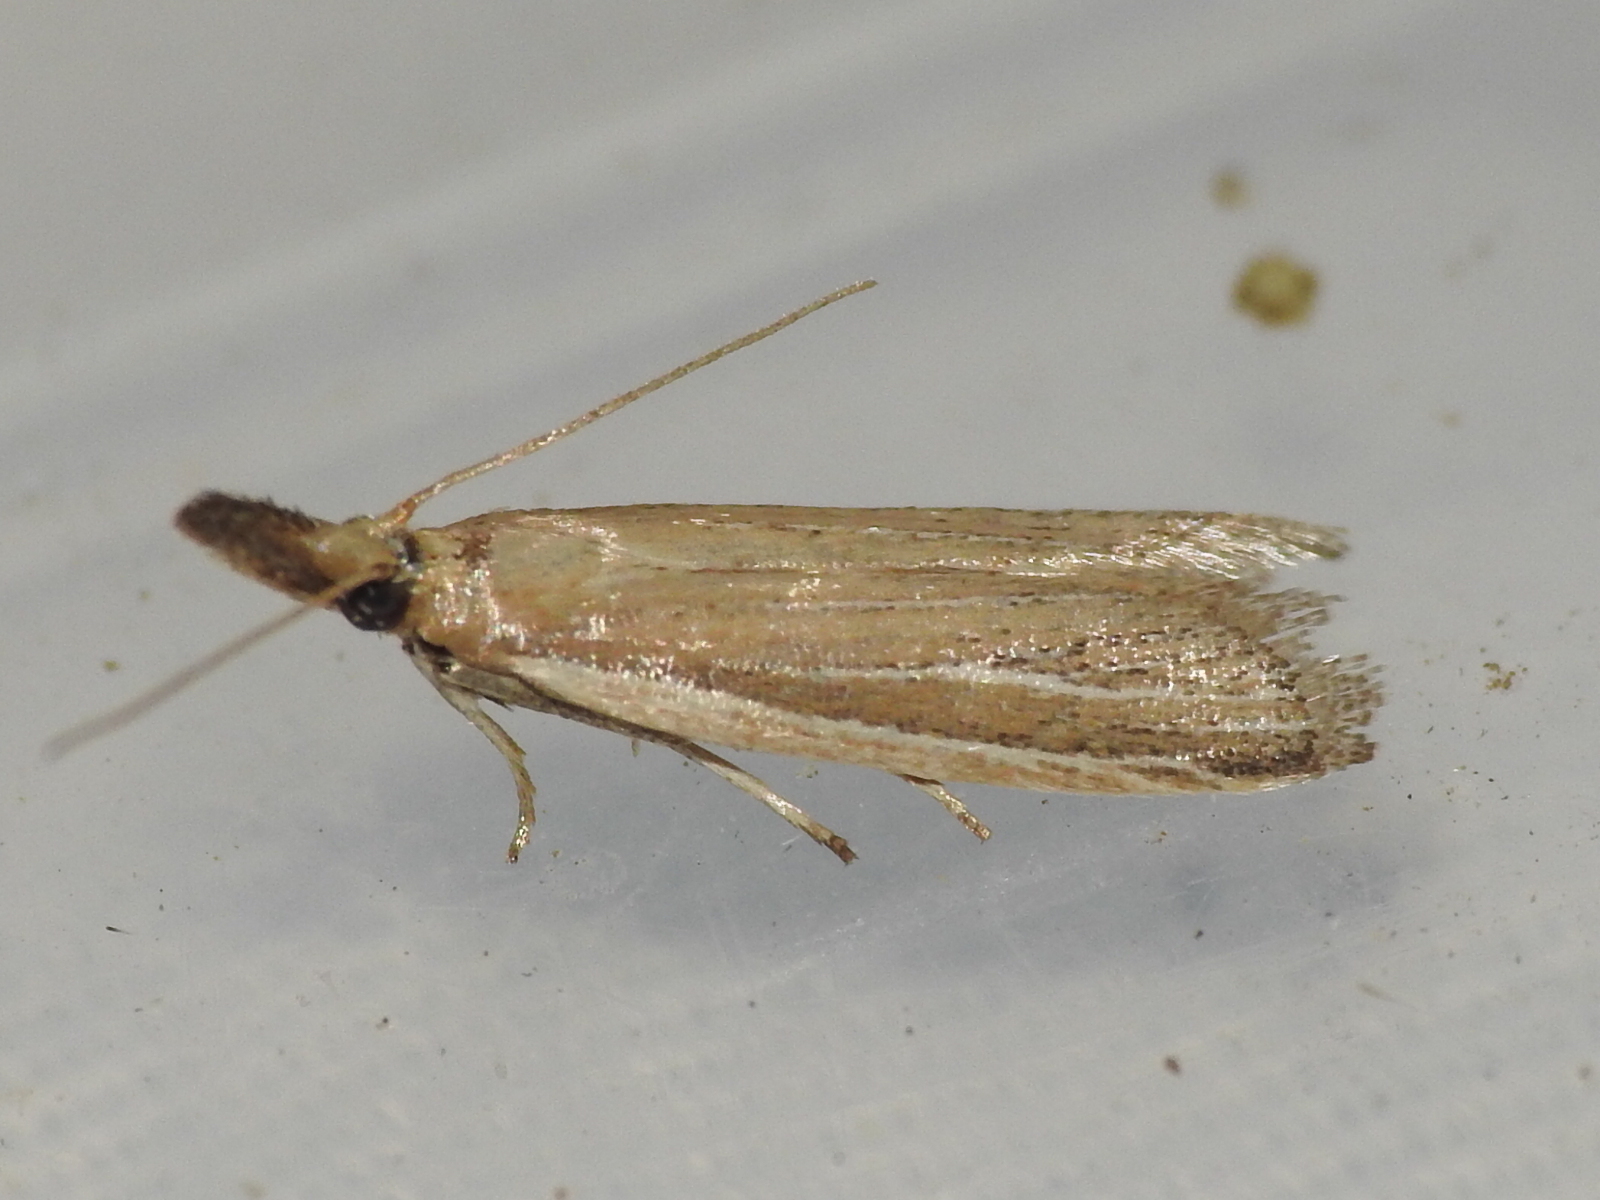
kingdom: Animalia
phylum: Arthropoda
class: Insecta
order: Lepidoptera
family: Pyralidae
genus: Peoria
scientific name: Peoria tetradella
